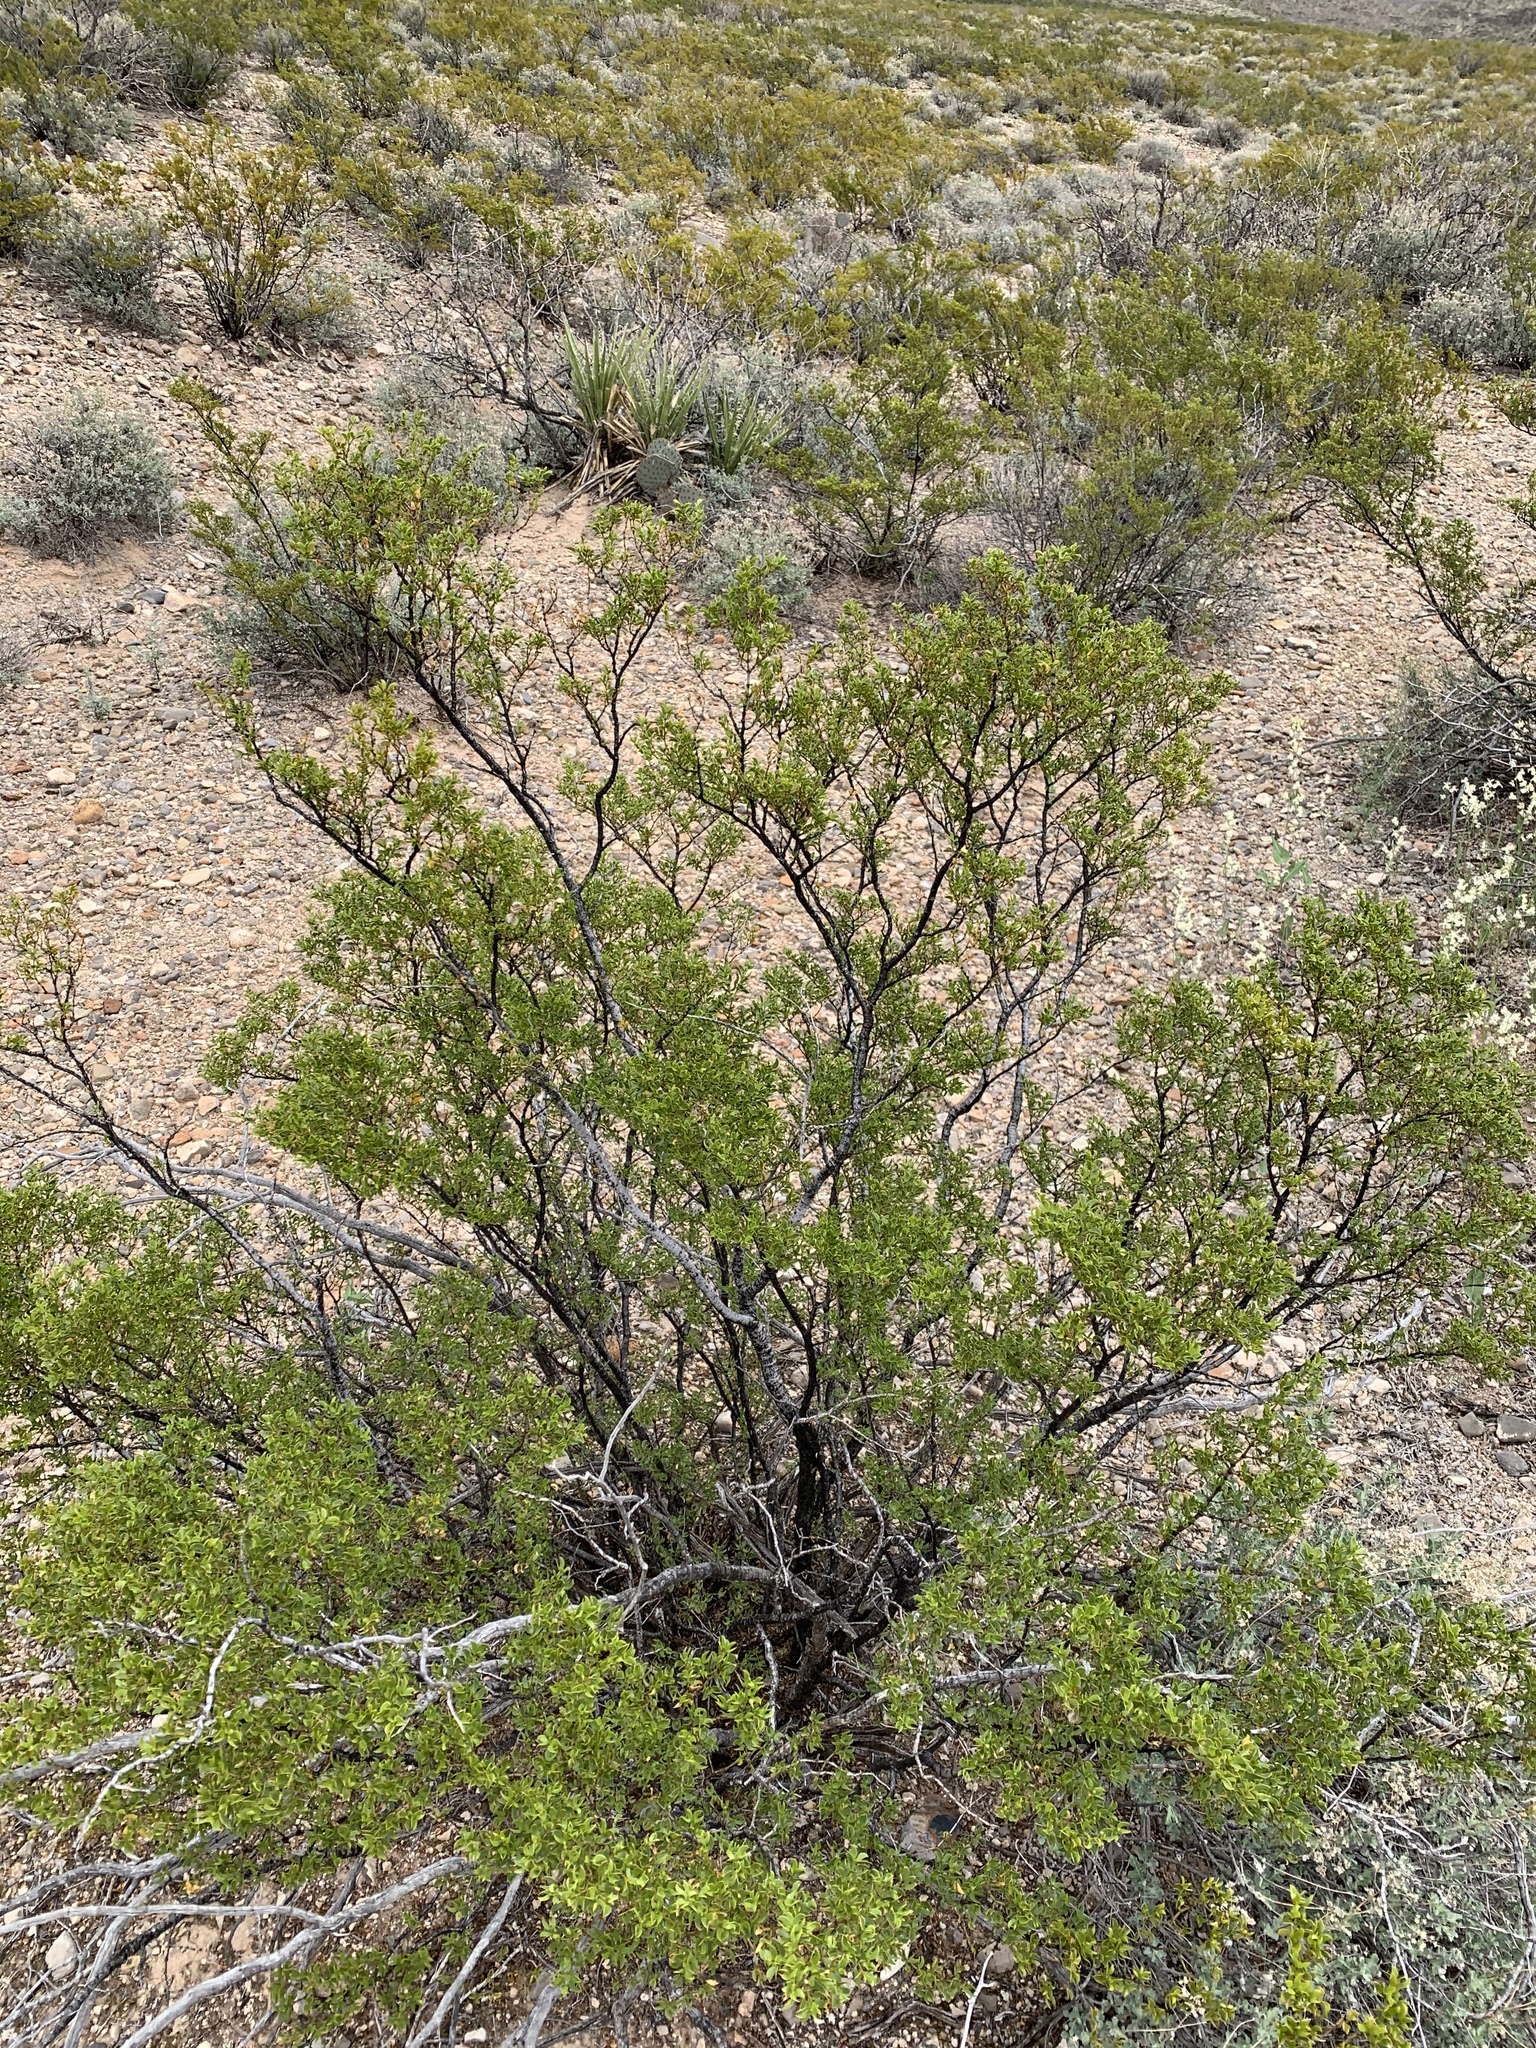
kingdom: Plantae
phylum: Tracheophyta
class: Magnoliopsida
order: Zygophyllales
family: Zygophyllaceae
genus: Larrea
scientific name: Larrea tridentata
